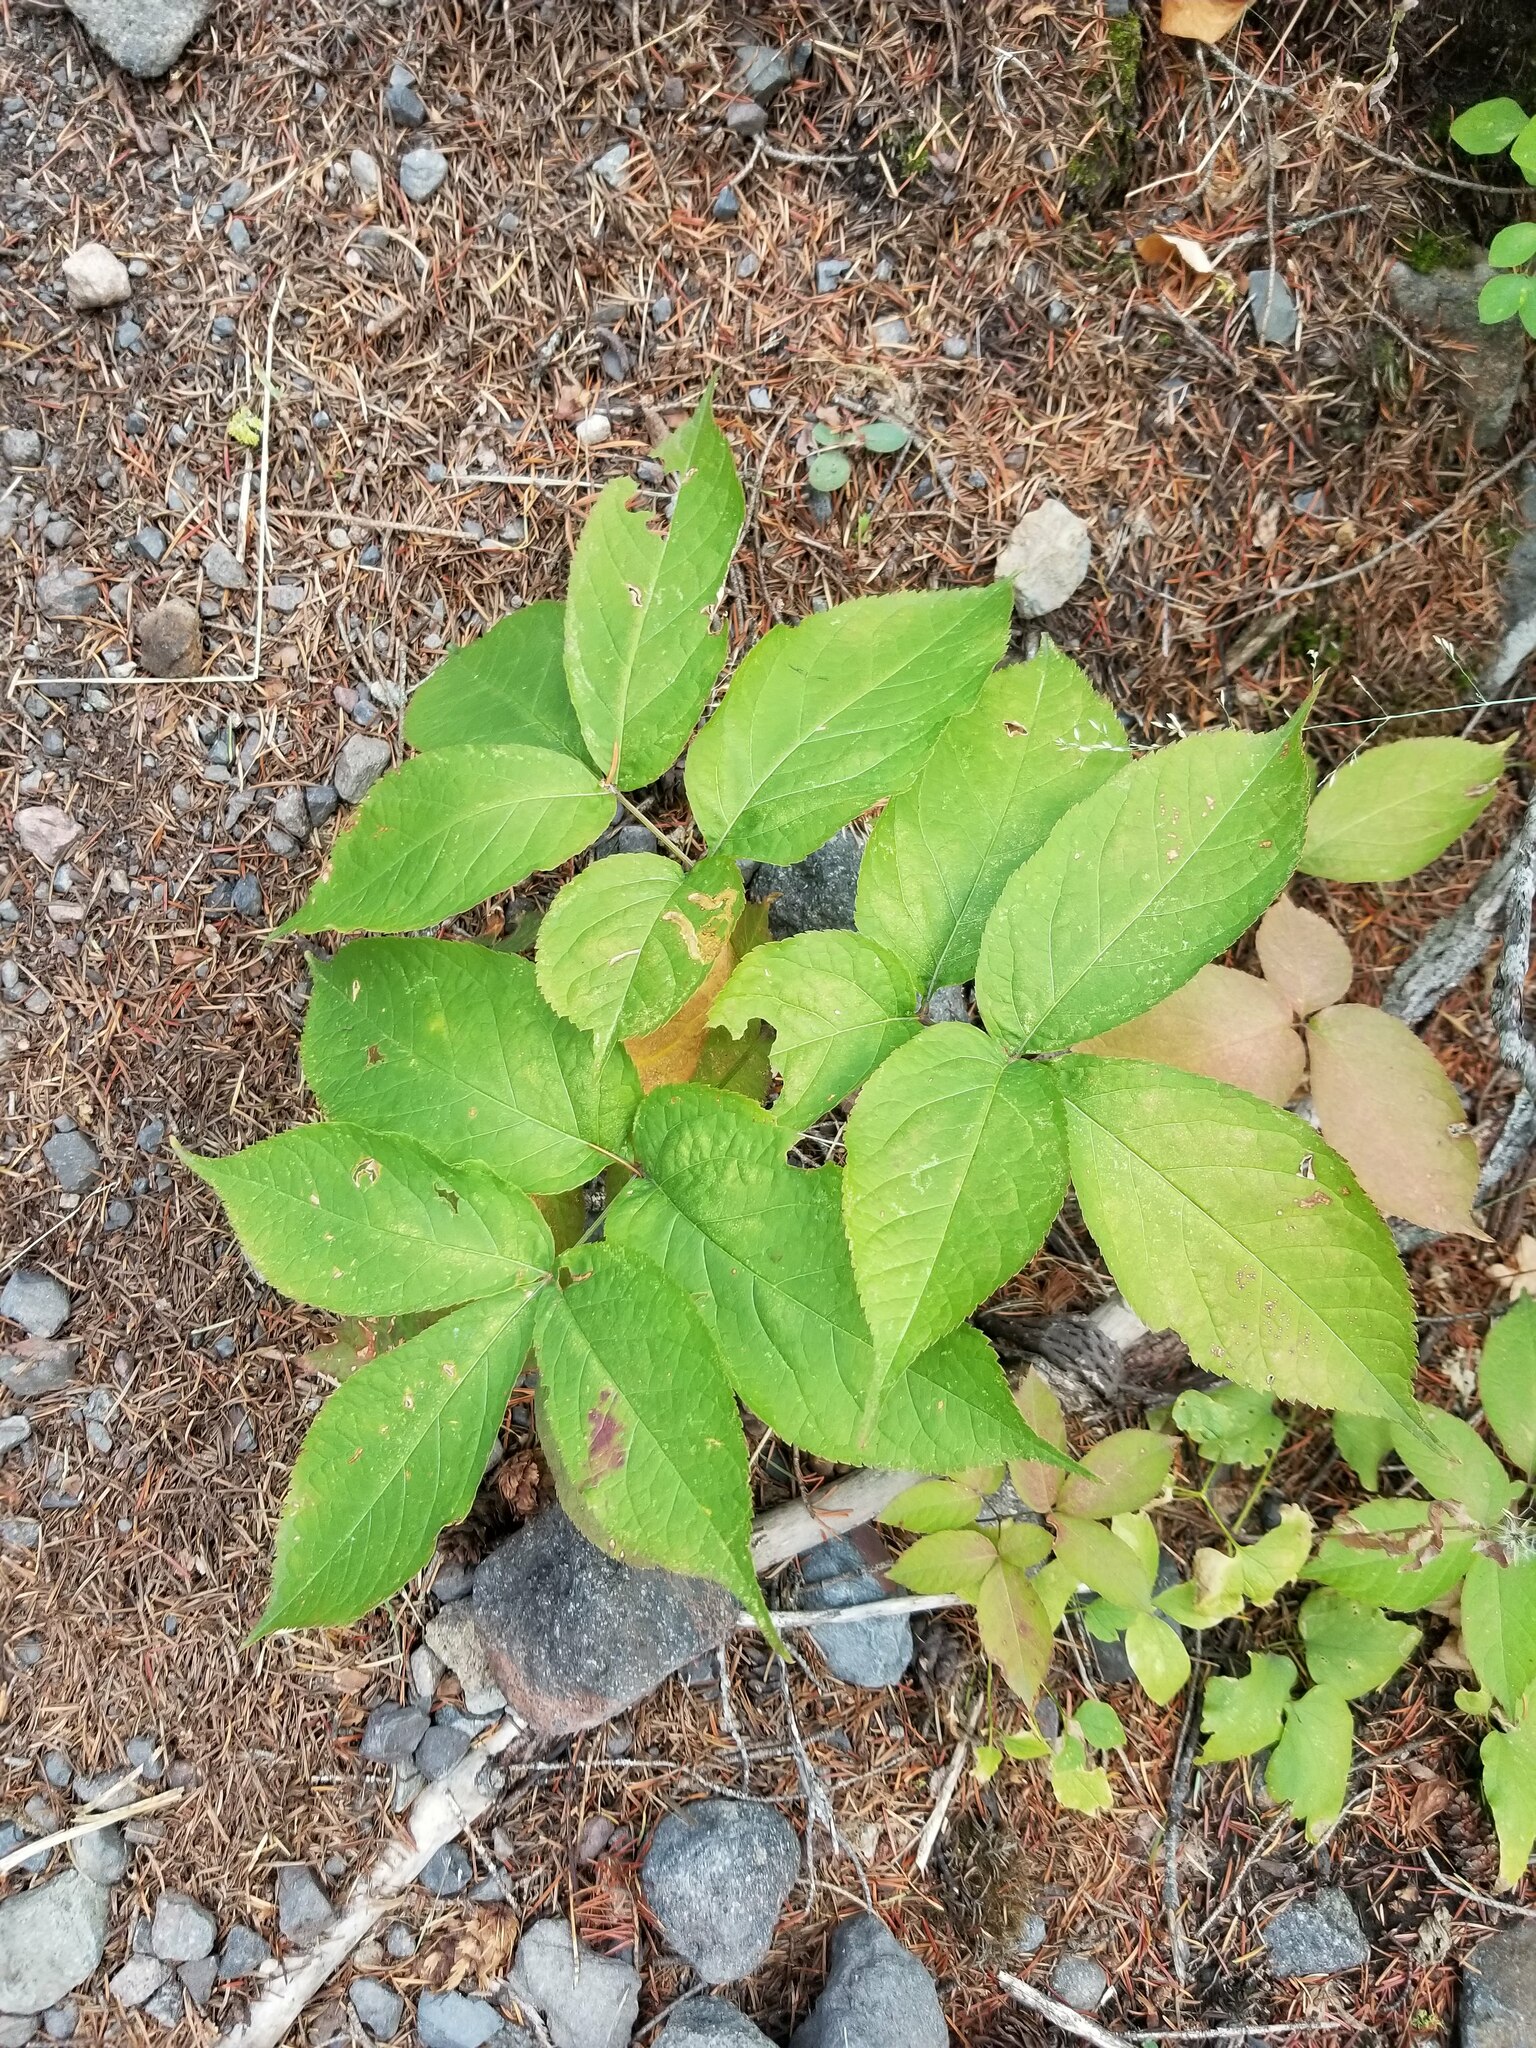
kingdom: Plantae
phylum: Tracheophyta
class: Magnoliopsida
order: Apiales
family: Araliaceae
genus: Aralia
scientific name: Aralia nudicaulis
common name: Wild sarsaparilla
